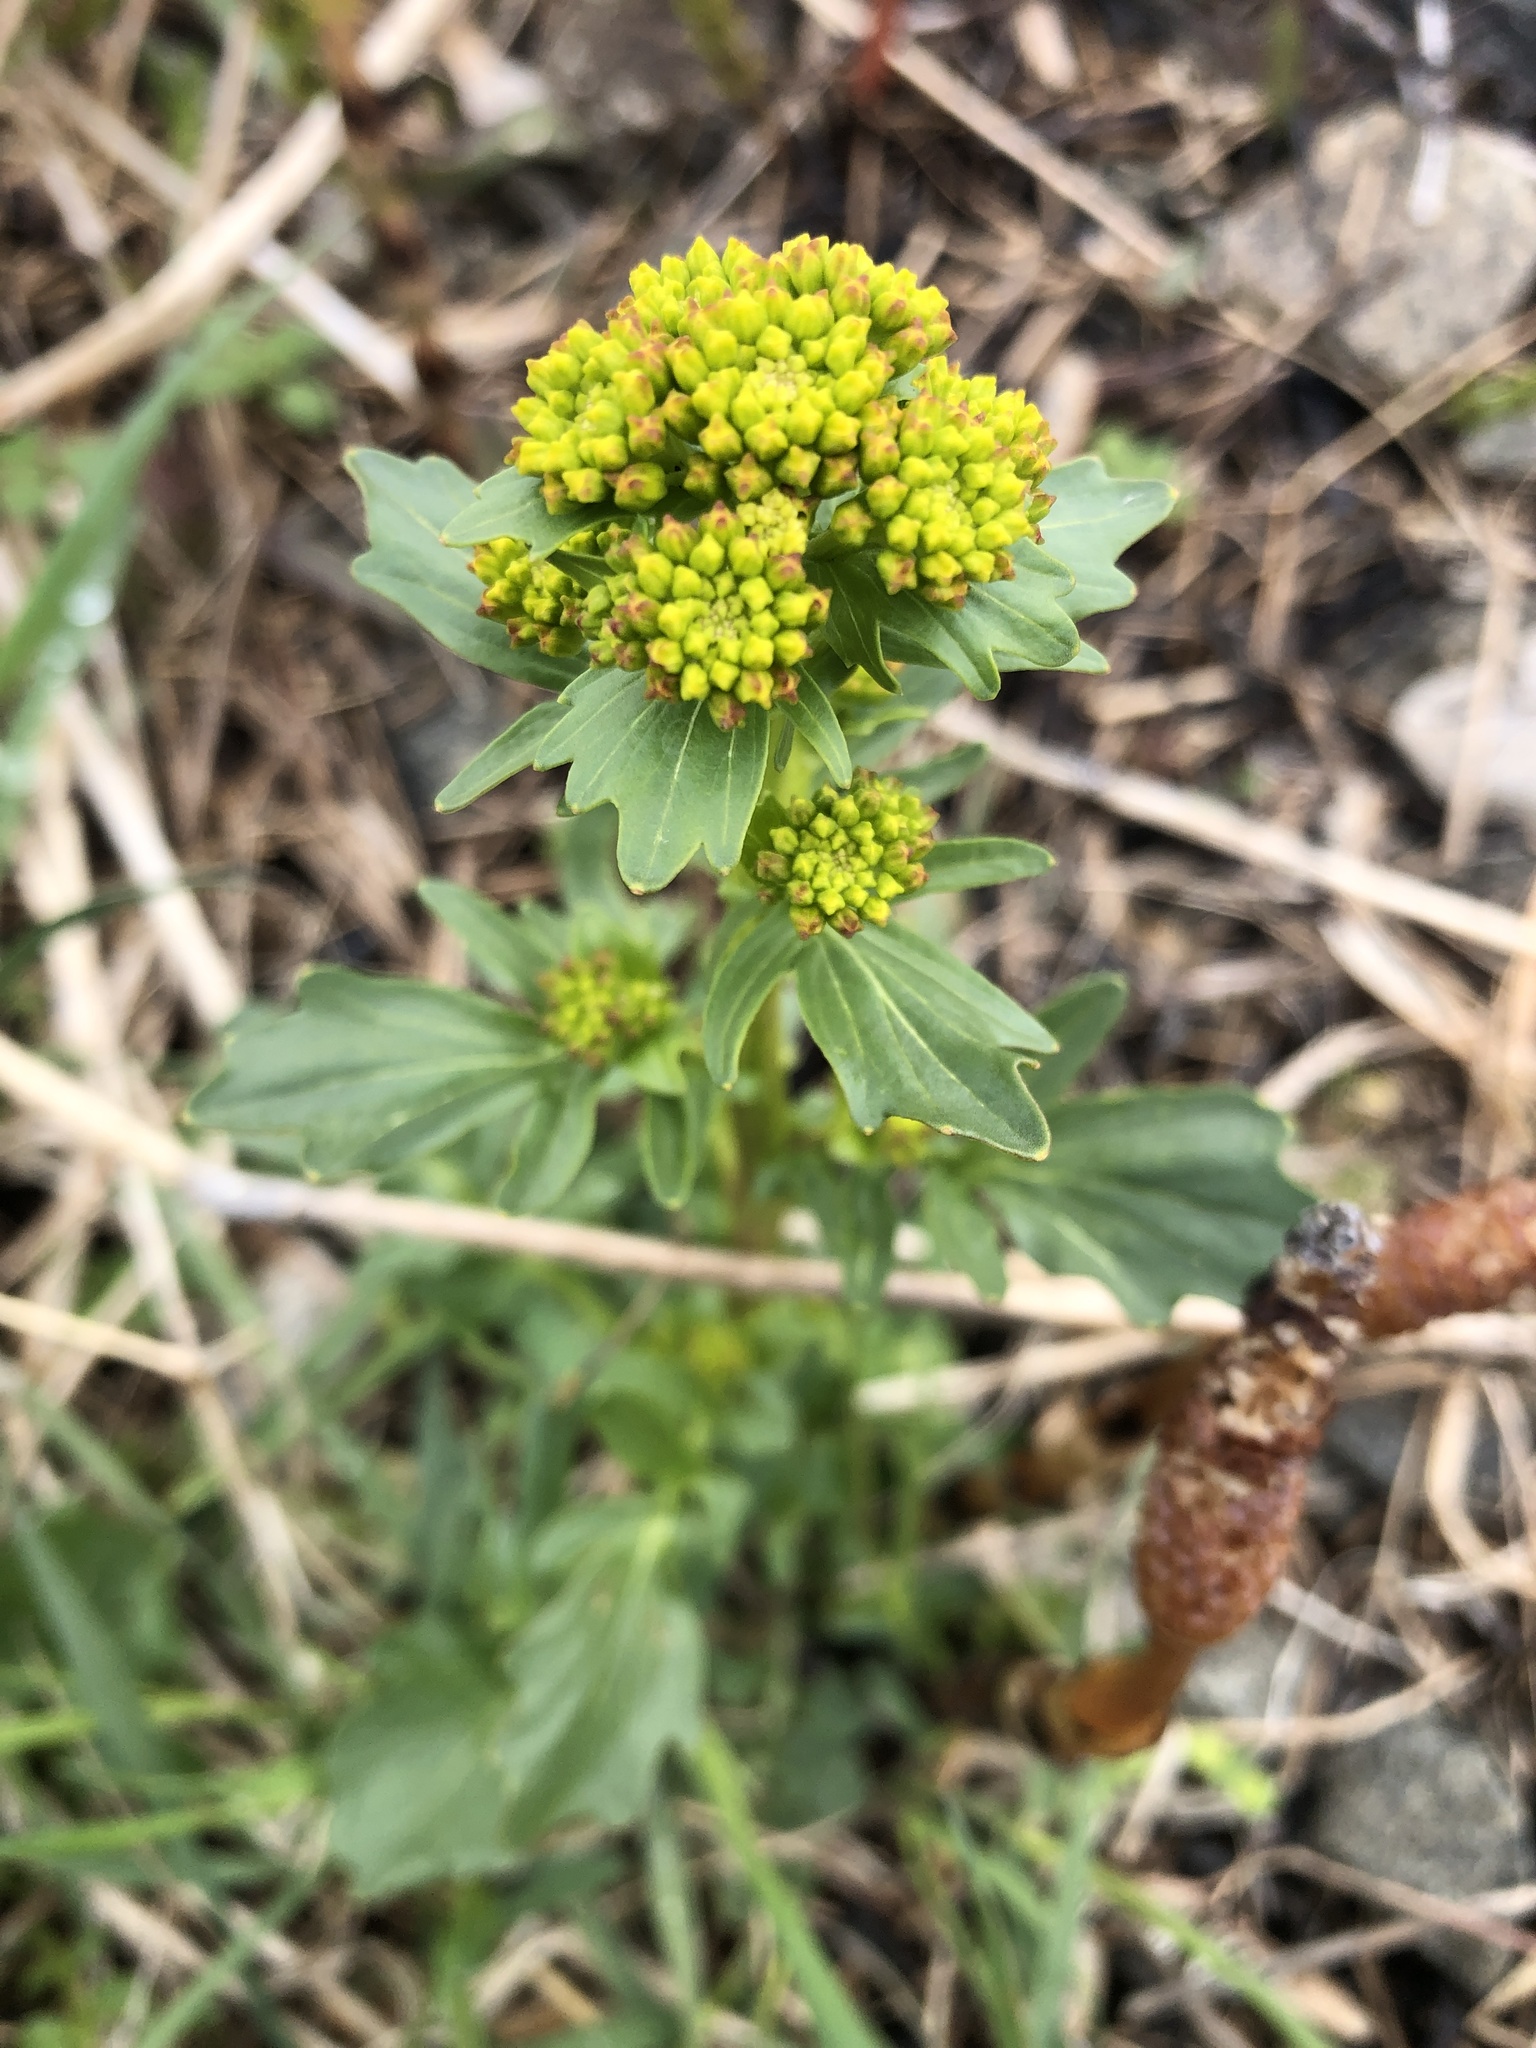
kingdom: Plantae
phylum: Tracheophyta
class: Magnoliopsida
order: Brassicales
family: Brassicaceae
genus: Barbarea
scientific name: Barbarea vulgaris
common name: Cressy-greens
